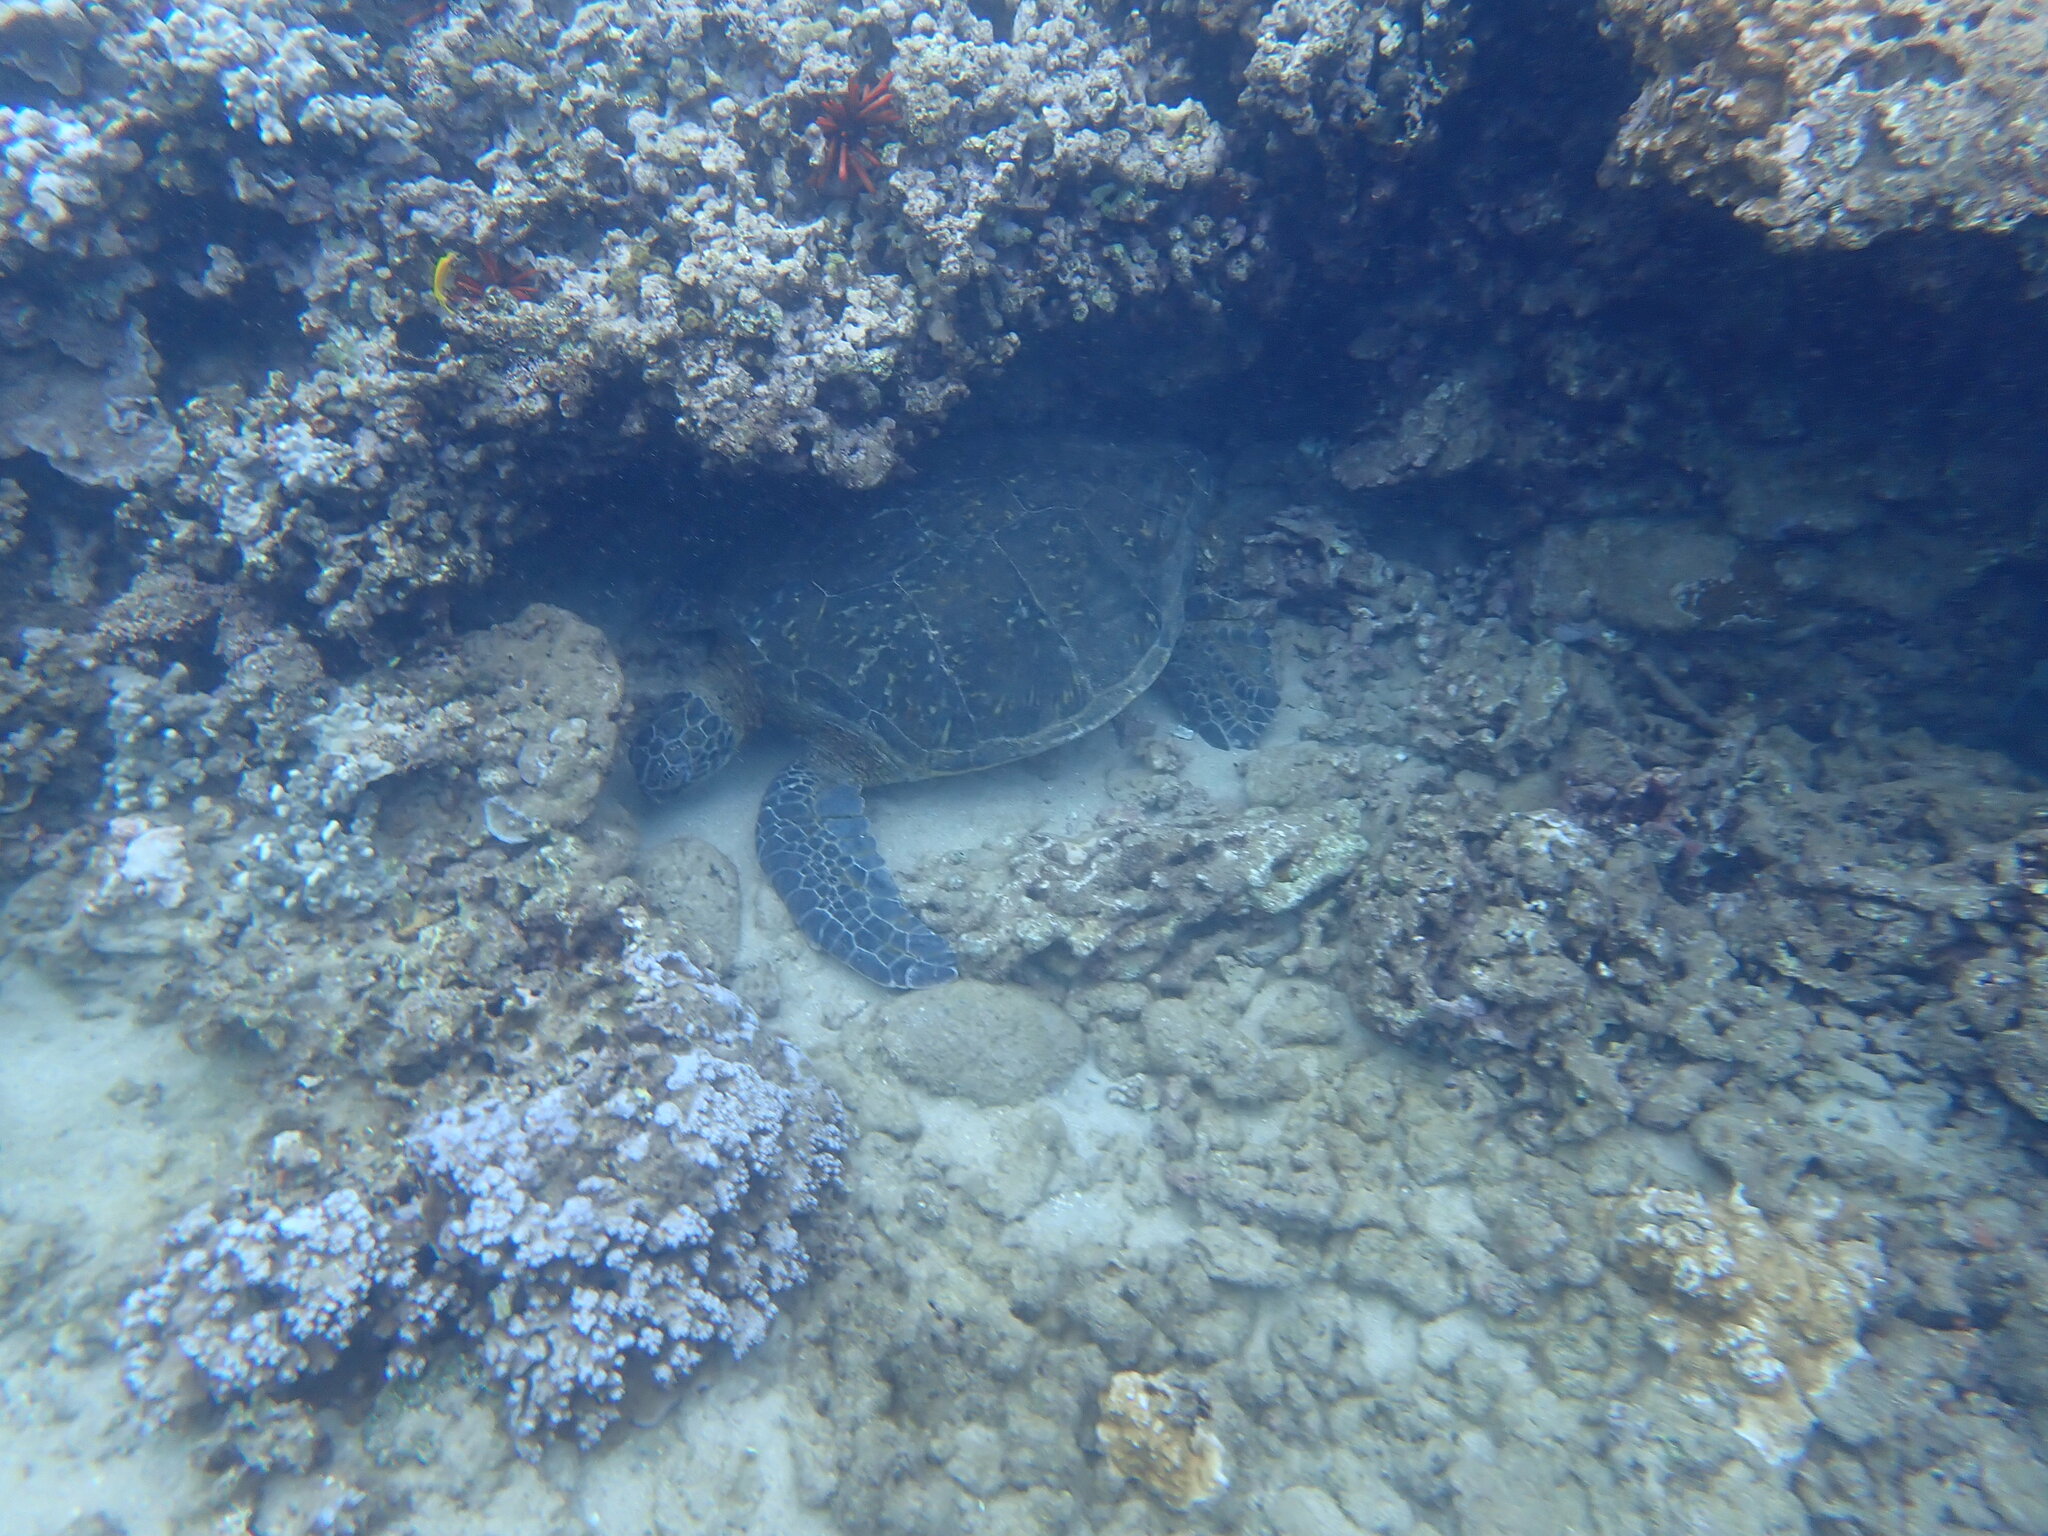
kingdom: Animalia
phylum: Chordata
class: Testudines
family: Cheloniidae
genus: Chelonia
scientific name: Chelonia mydas
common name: Green turtle
